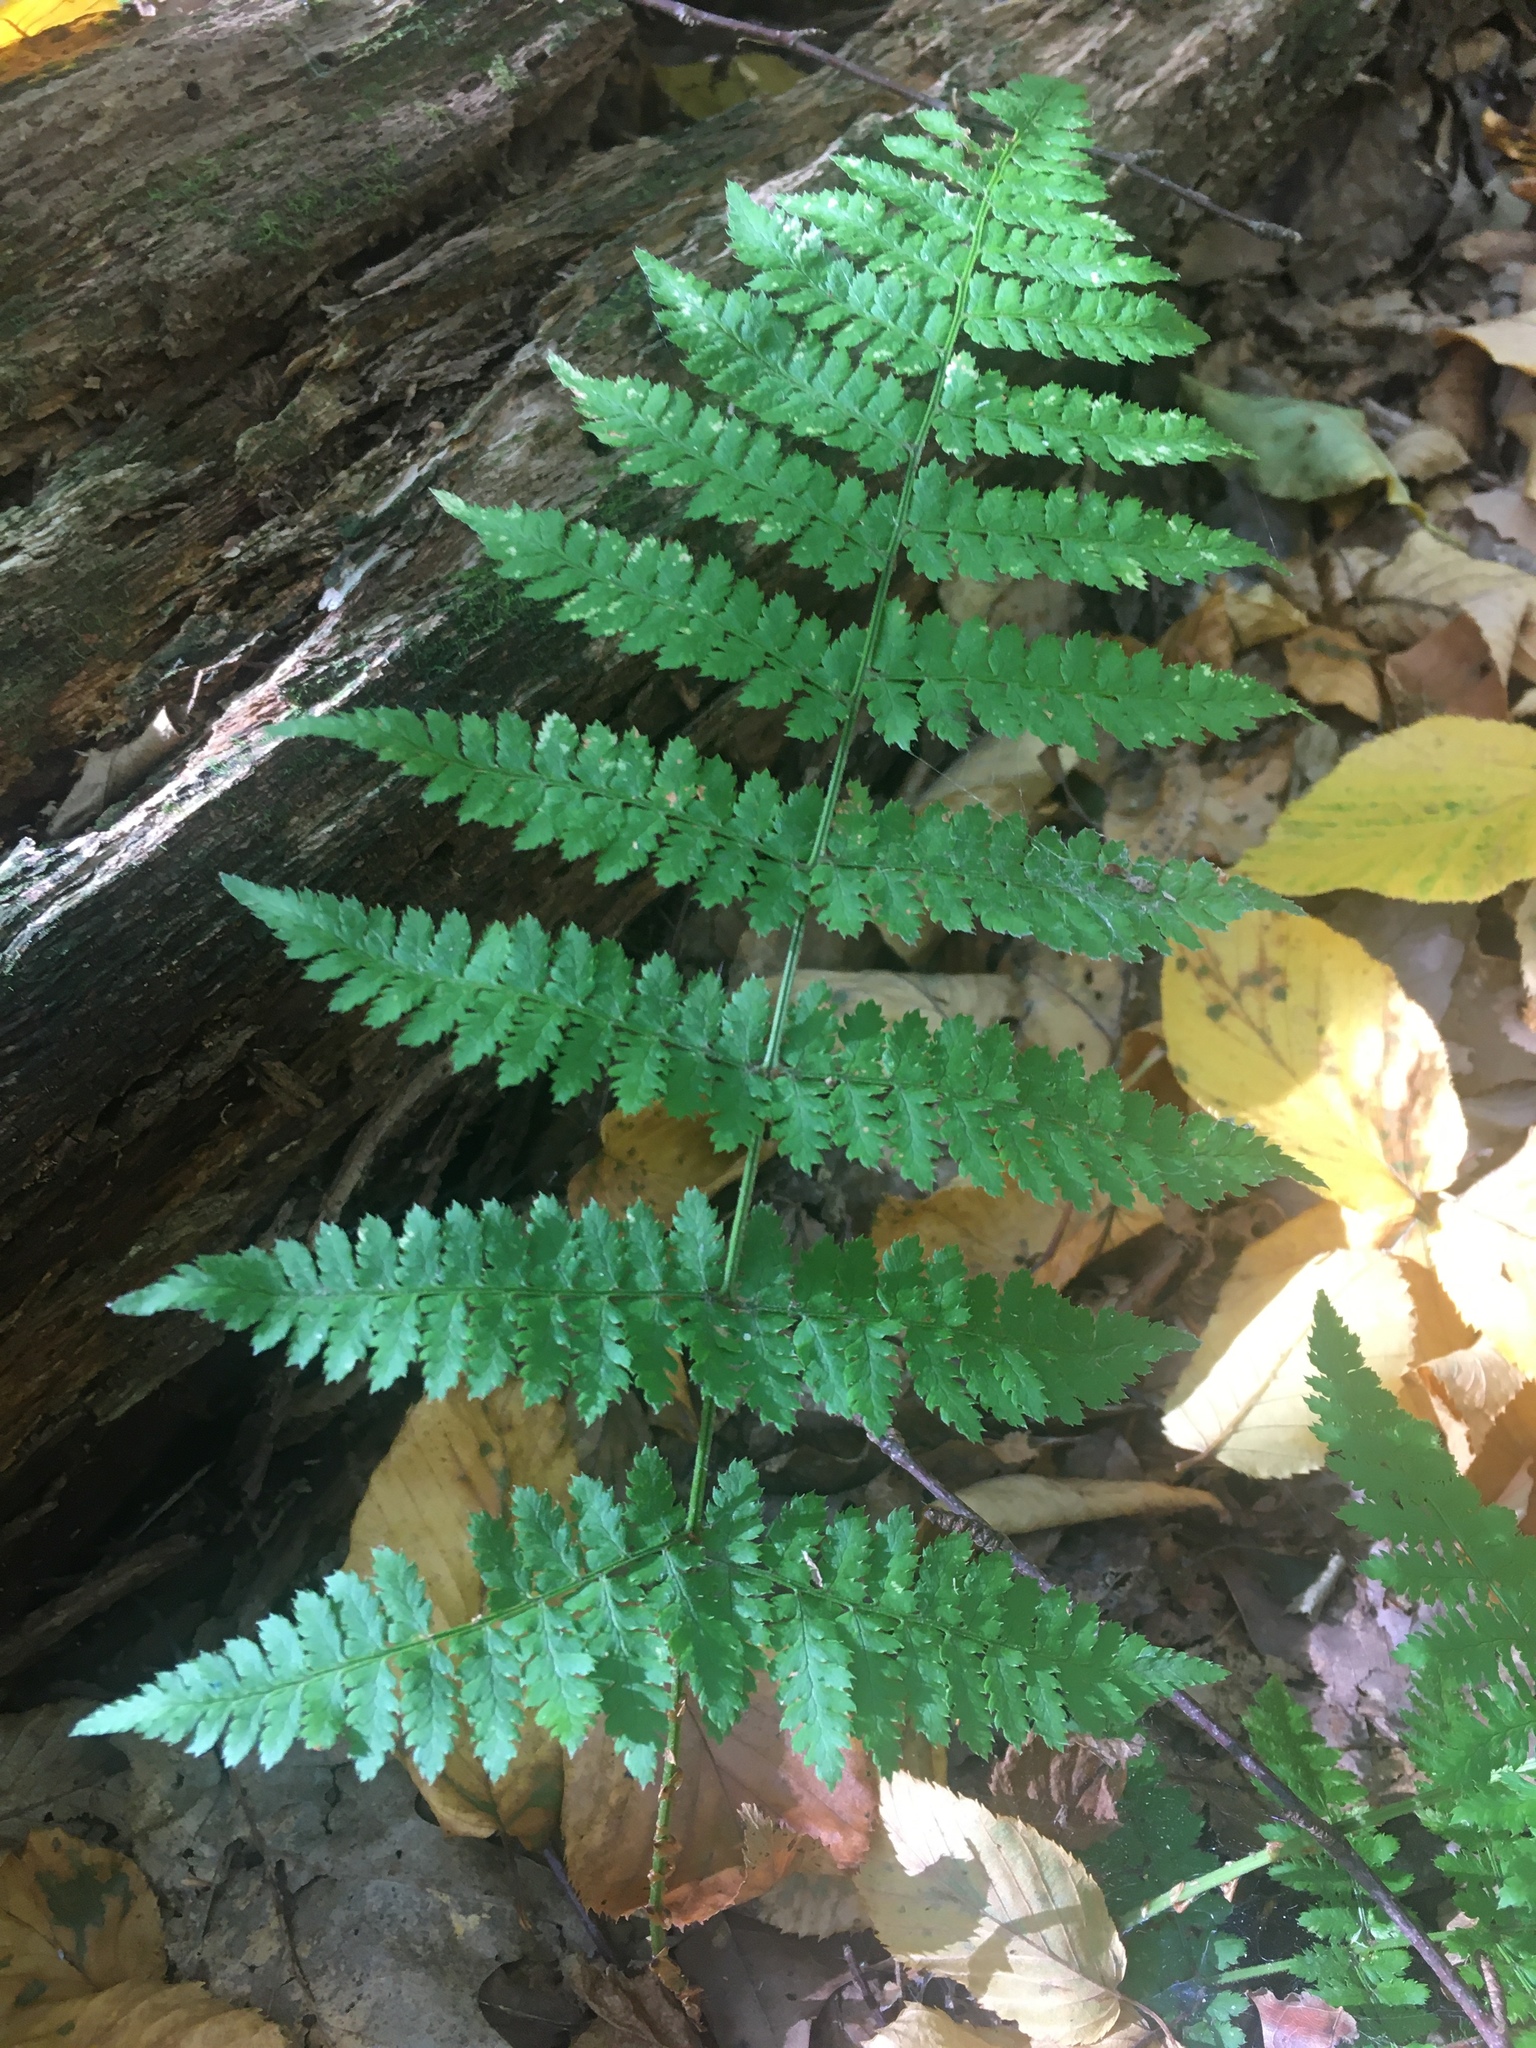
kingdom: Plantae
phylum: Tracheophyta
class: Polypodiopsida
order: Polypodiales
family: Dryopteridaceae
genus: Dryopteris
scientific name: Dryopteris intermedia
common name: Evergreen wood fern
